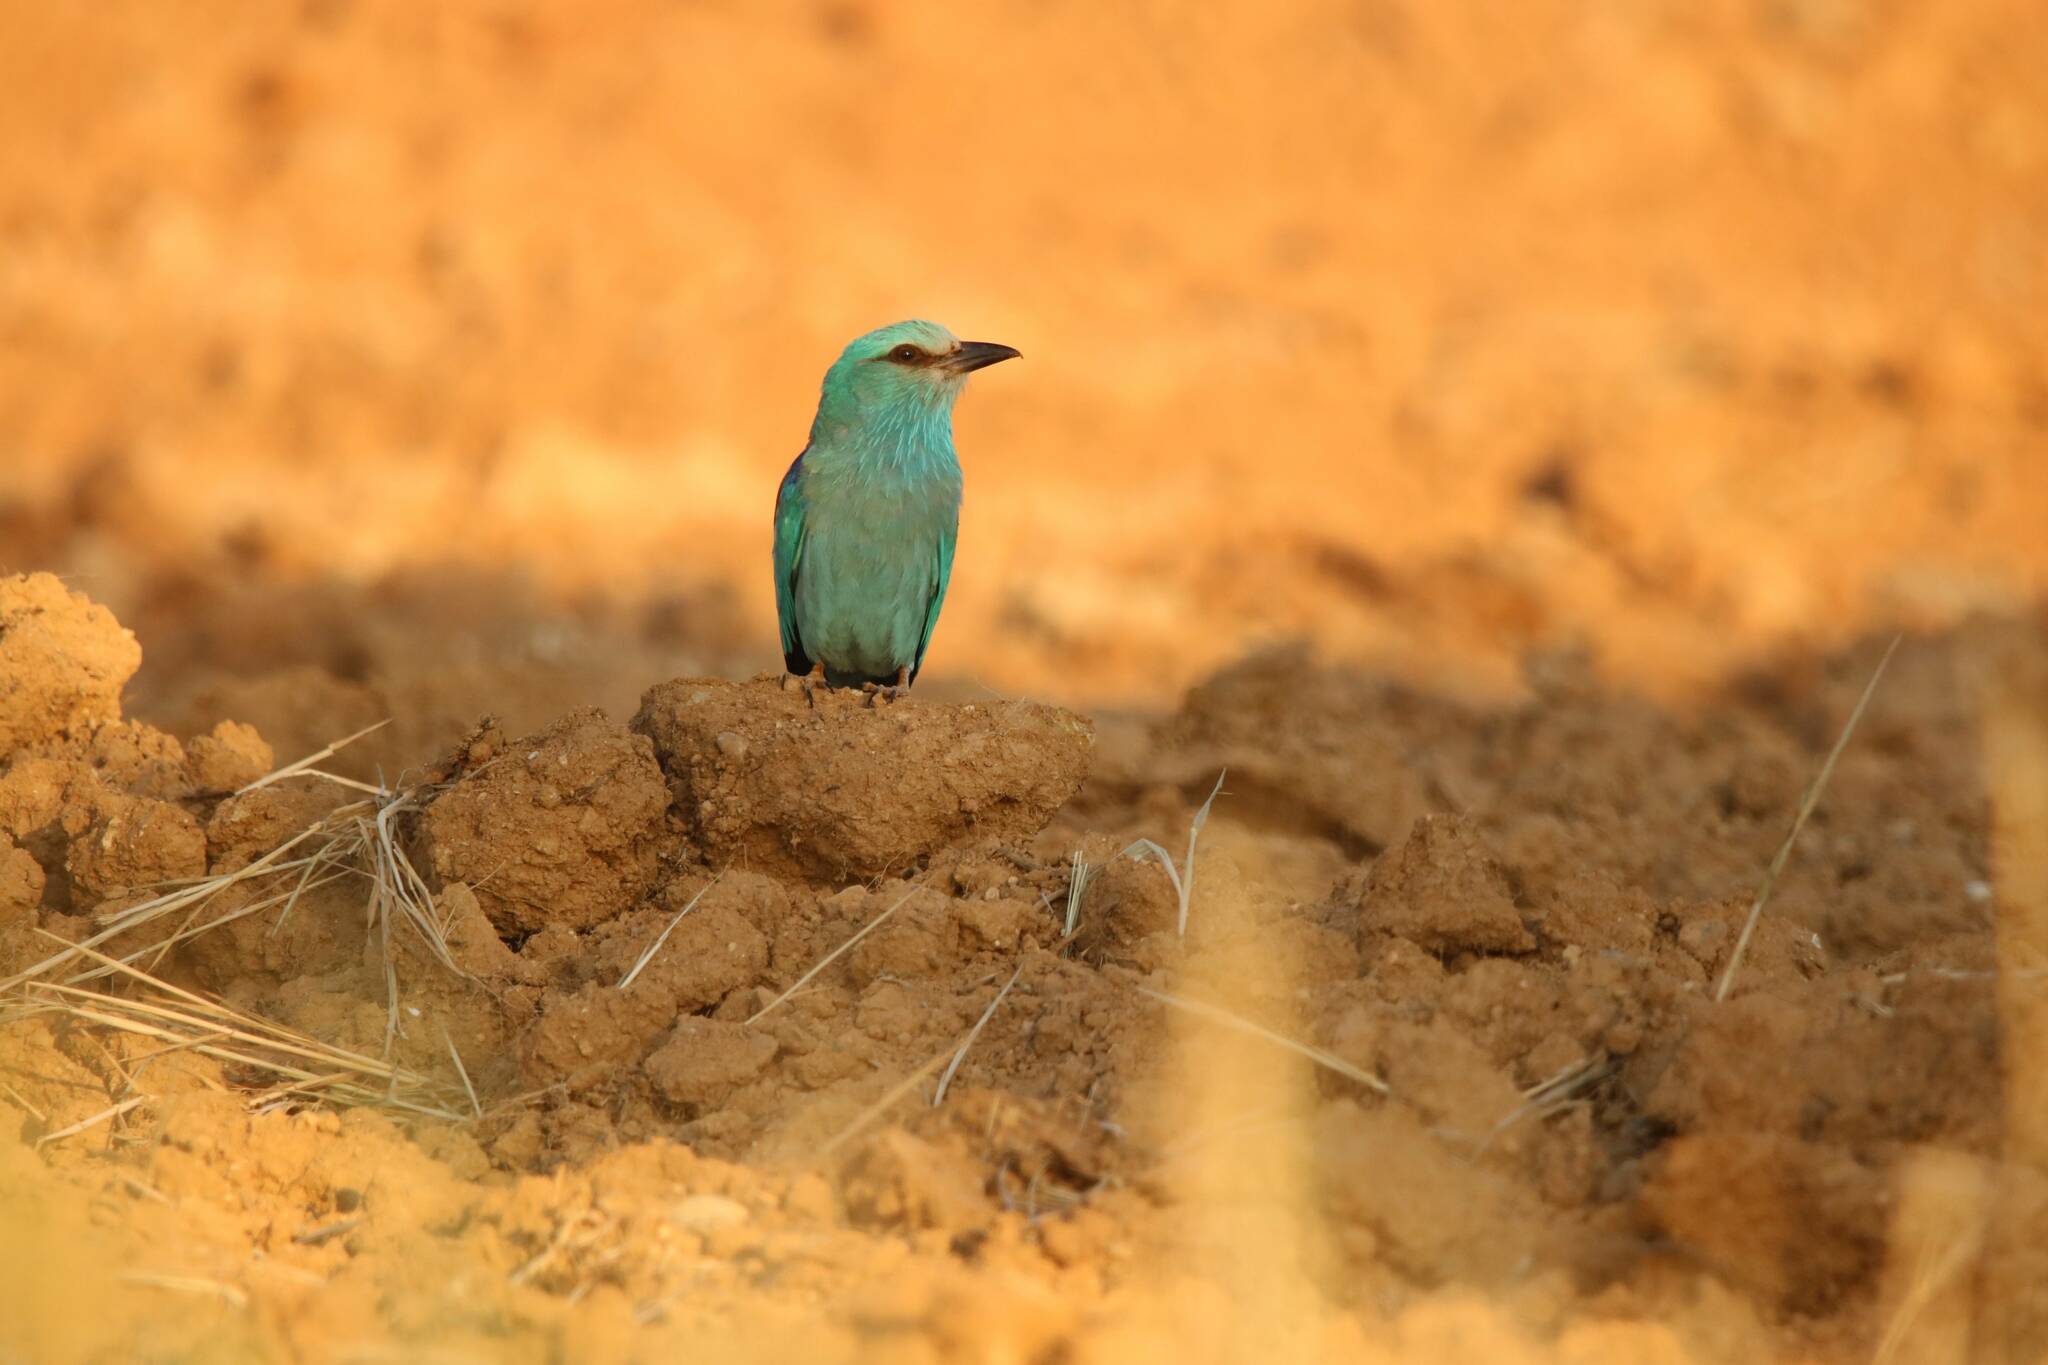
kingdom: Animalia
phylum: Chordata
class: Aves
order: Coraciiformes
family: Coraciidae
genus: Coracias
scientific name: Coracias garrulus
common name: European roller
